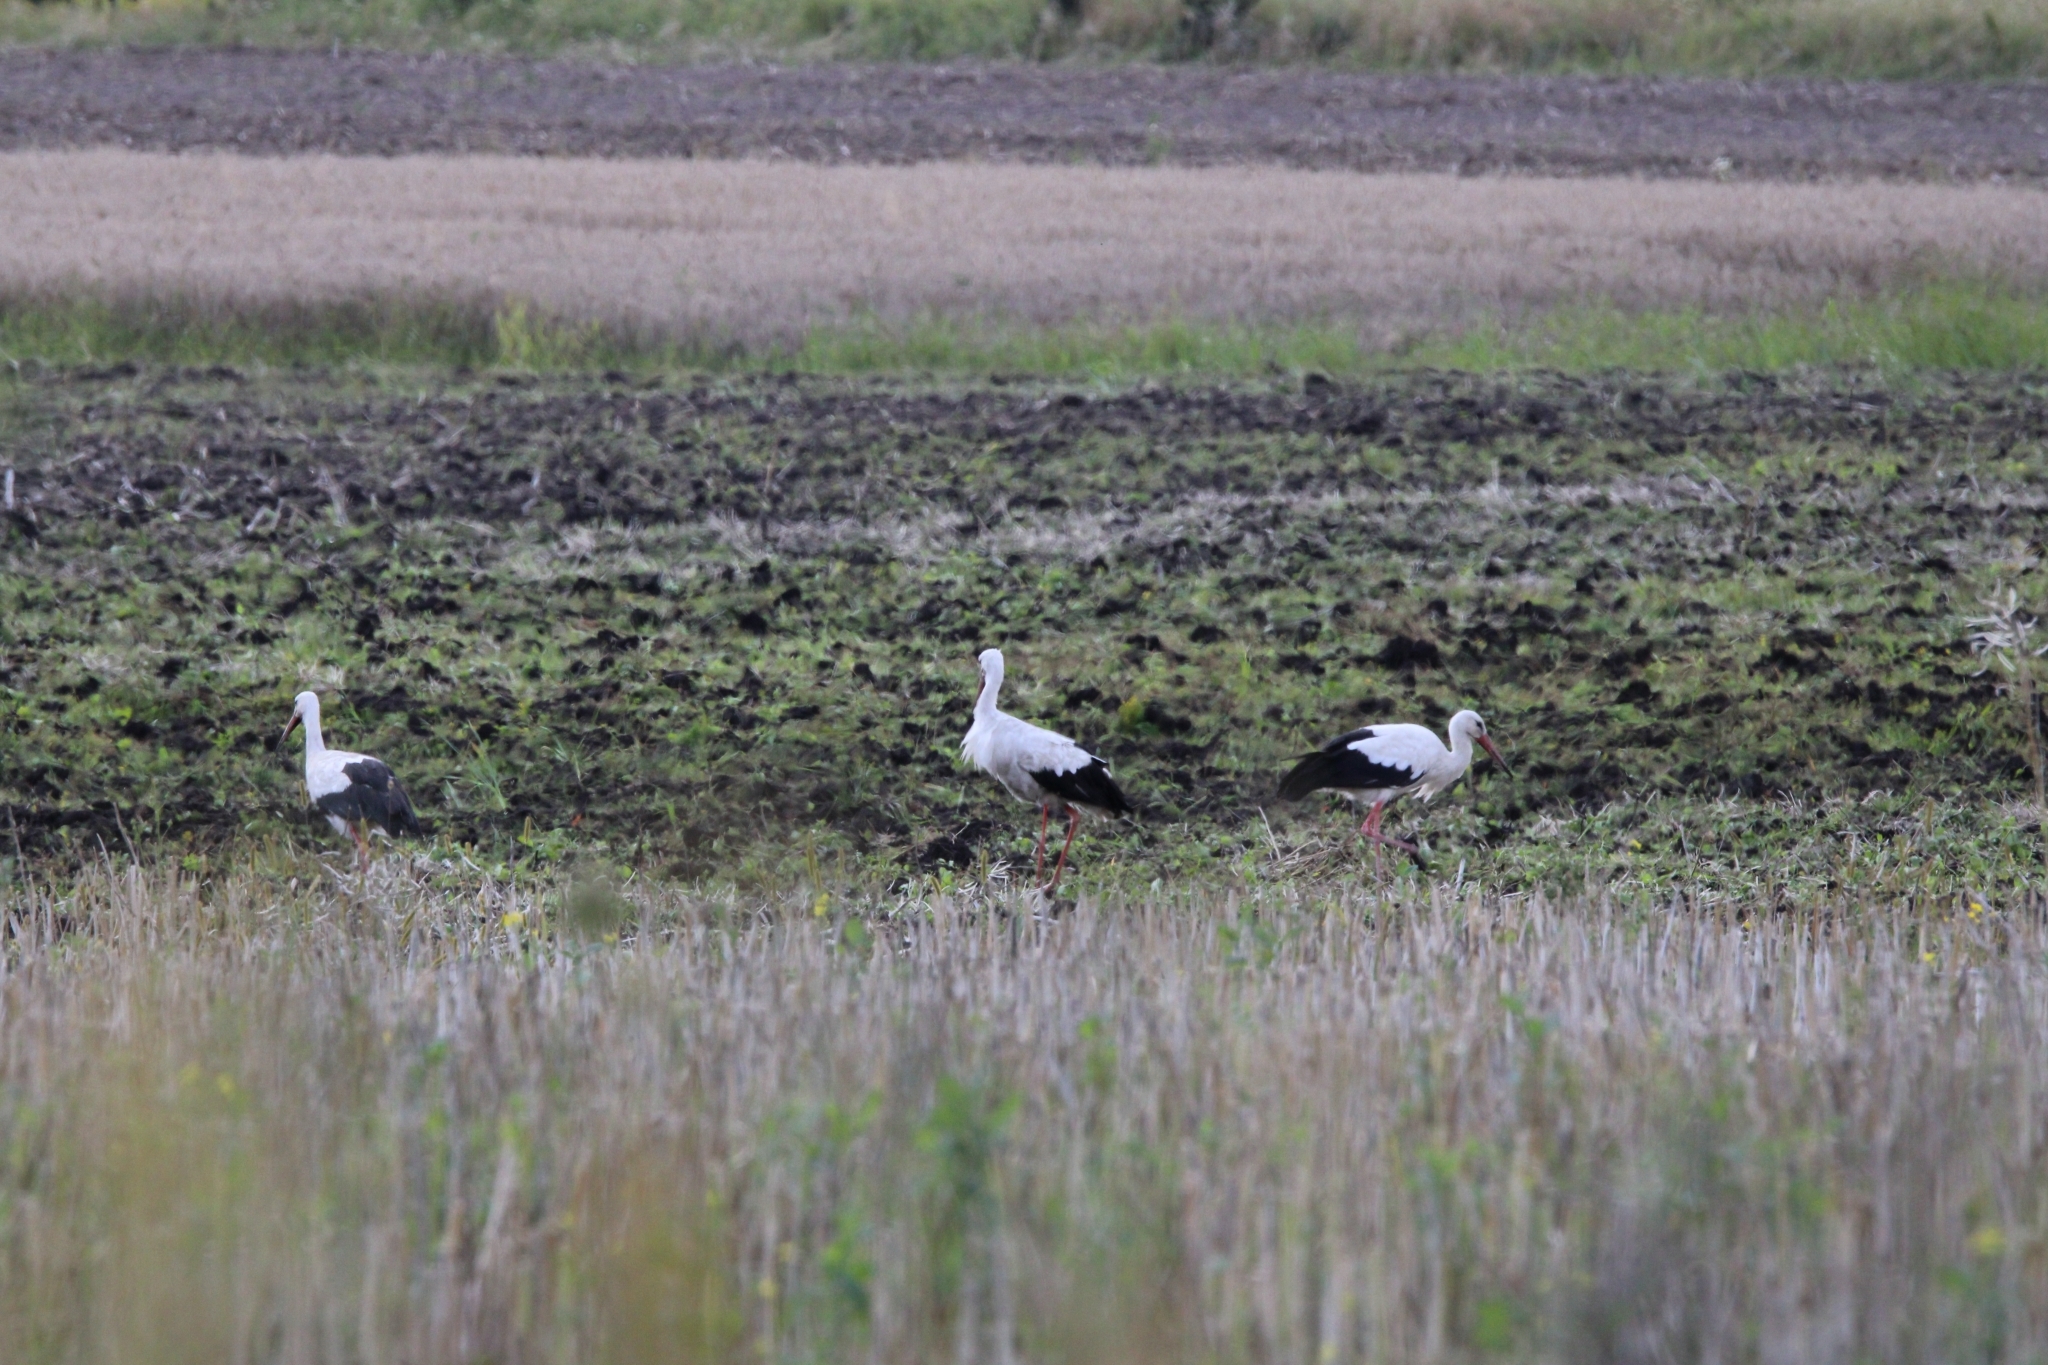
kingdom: Animalia
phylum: Chordata
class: Aves
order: Ciconiiformes
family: Ciconiidae
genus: Ciconia
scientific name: Ciconia ciconia
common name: White stork
